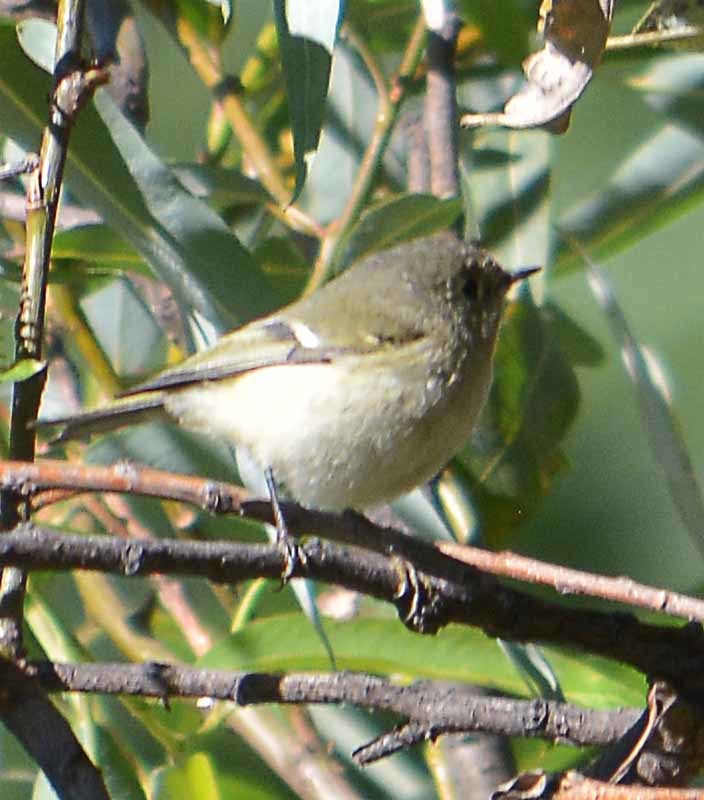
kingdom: Animalia
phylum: Chordata
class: Aves
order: Passeriformes
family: Regulidae
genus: Regulus
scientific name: Regulus calendula
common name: Ruby-crowned kinglet
